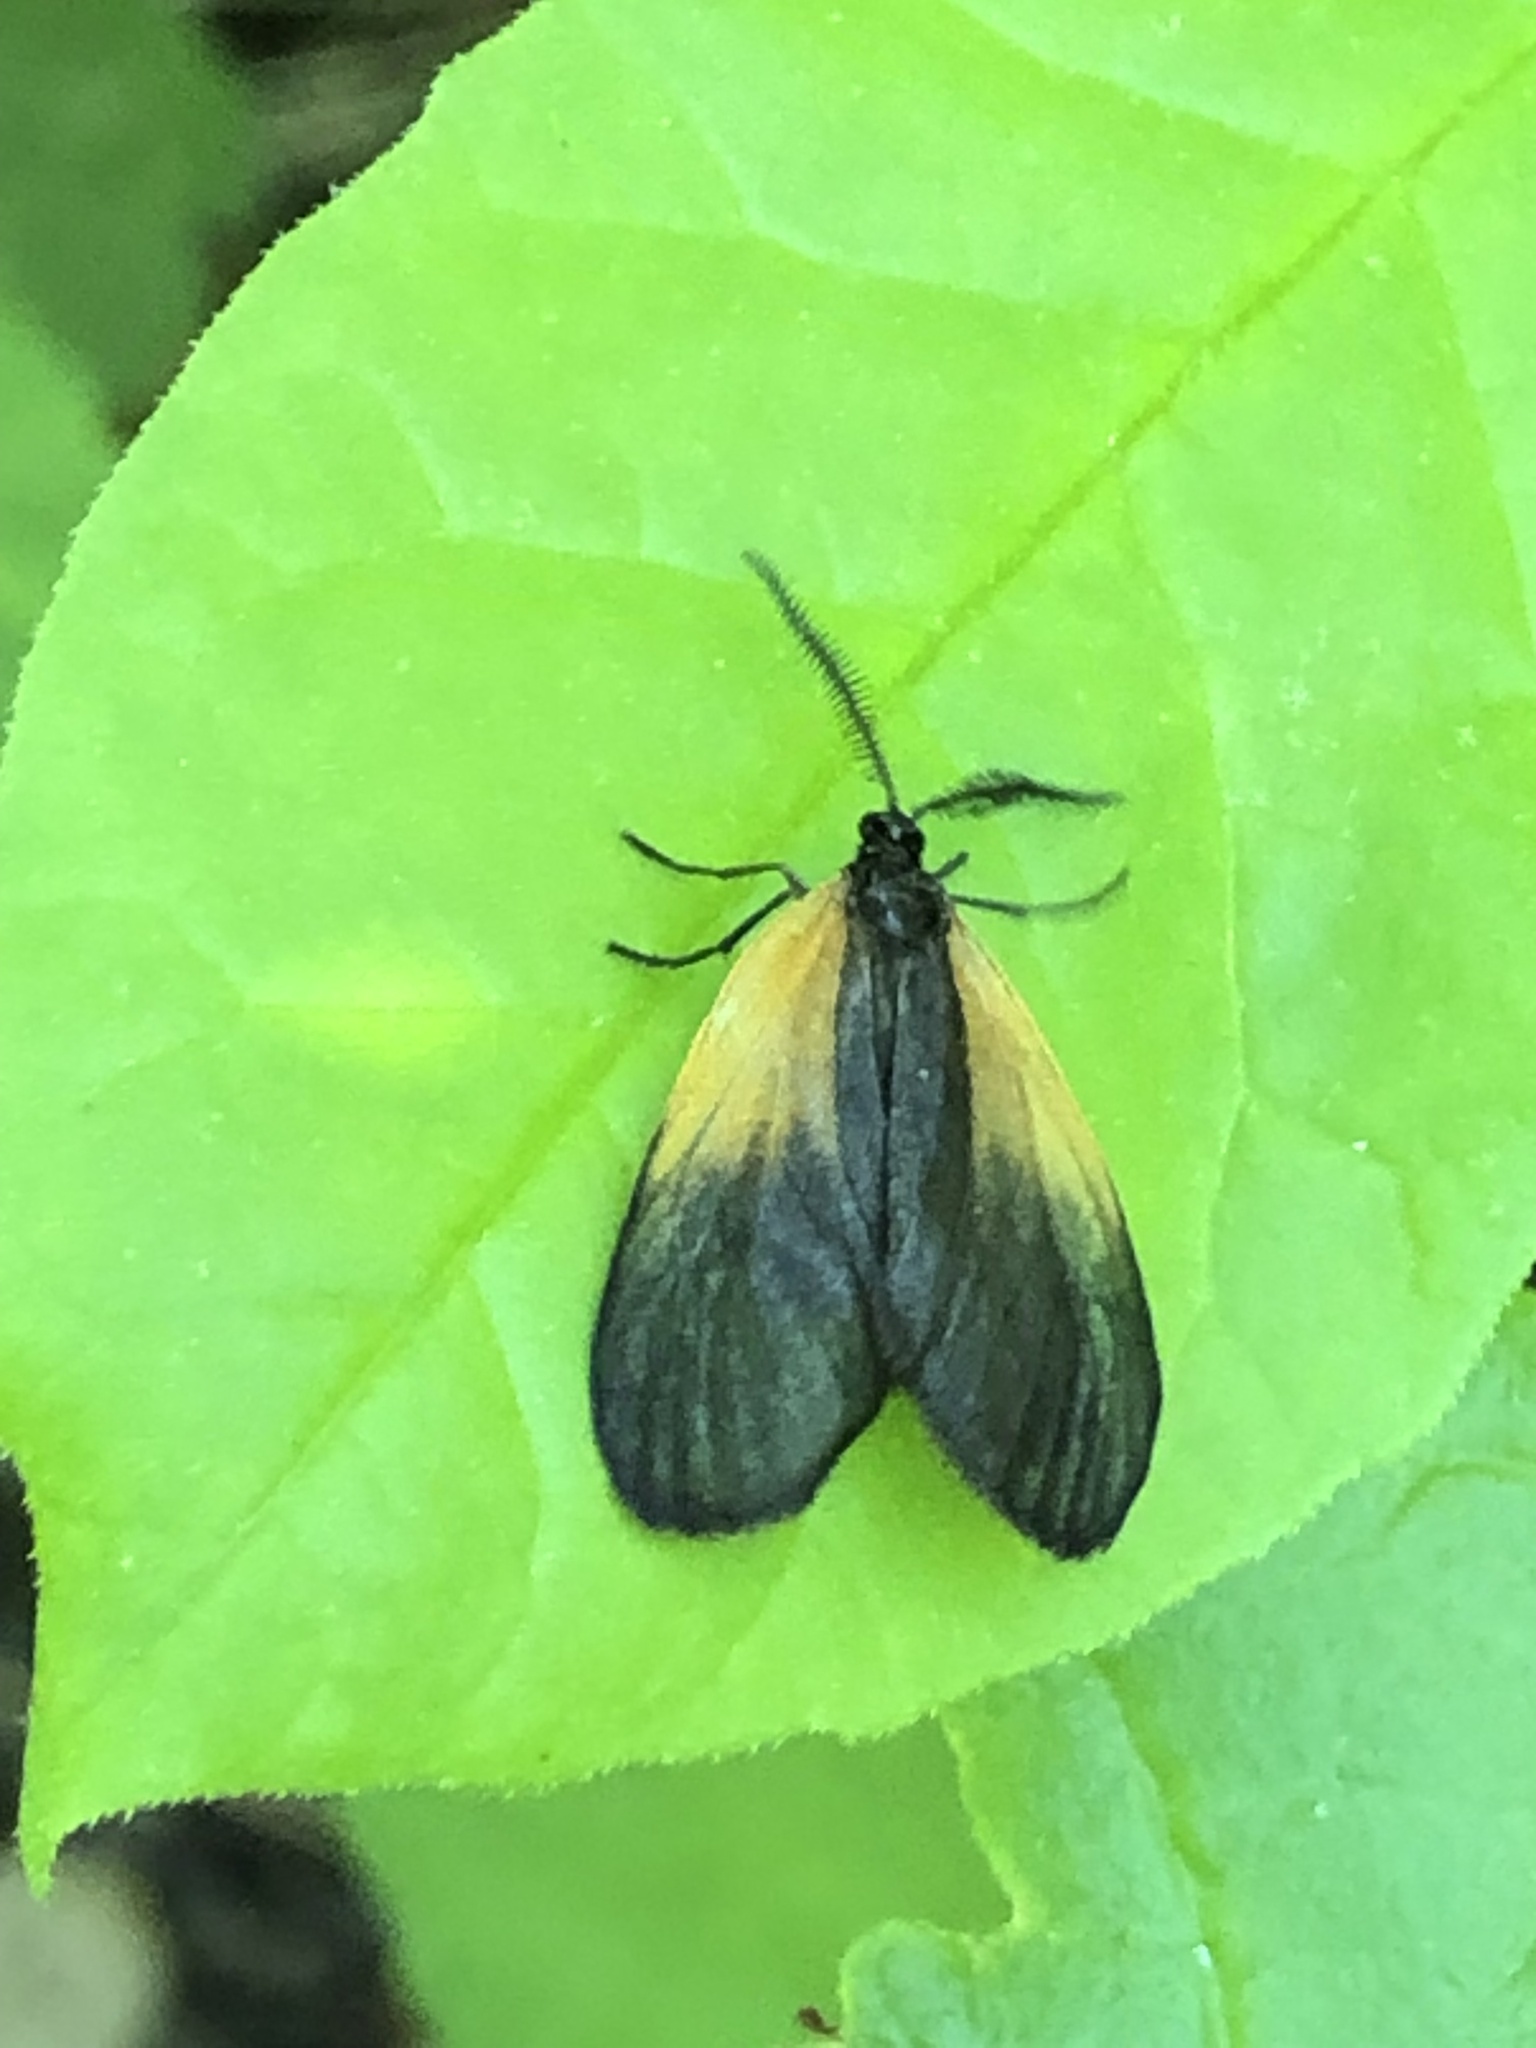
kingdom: Animalia
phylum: Arthropoda
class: Insecta
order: Lepidoptera
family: Zygaenidae
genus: Malthaca
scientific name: Malthaca dimidiata
